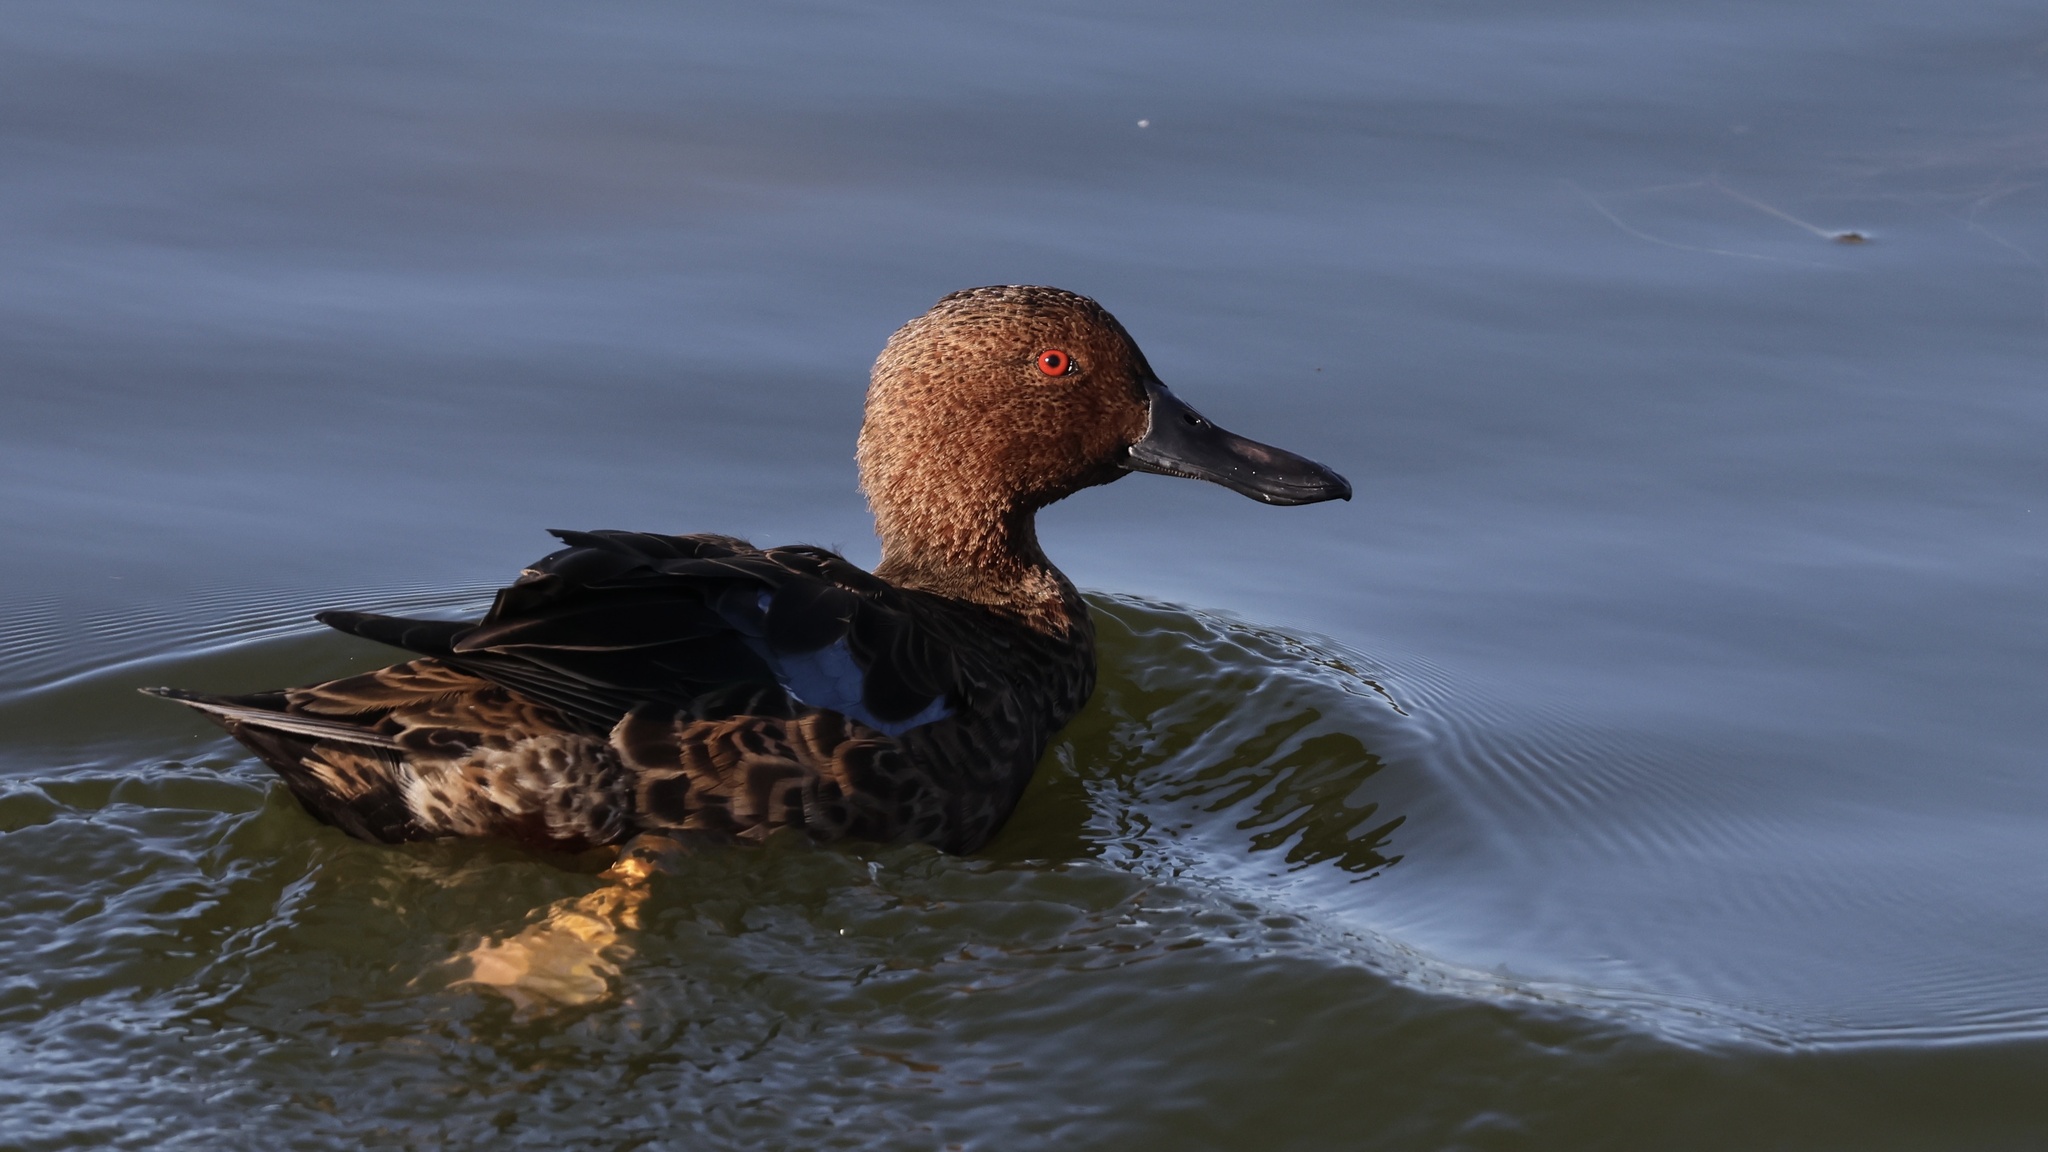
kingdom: Animalia
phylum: Chordata
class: Aves
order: Anseriformes
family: Anatidae
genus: Spatula
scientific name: Spatula cyanoptera
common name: Cinnamon teal
